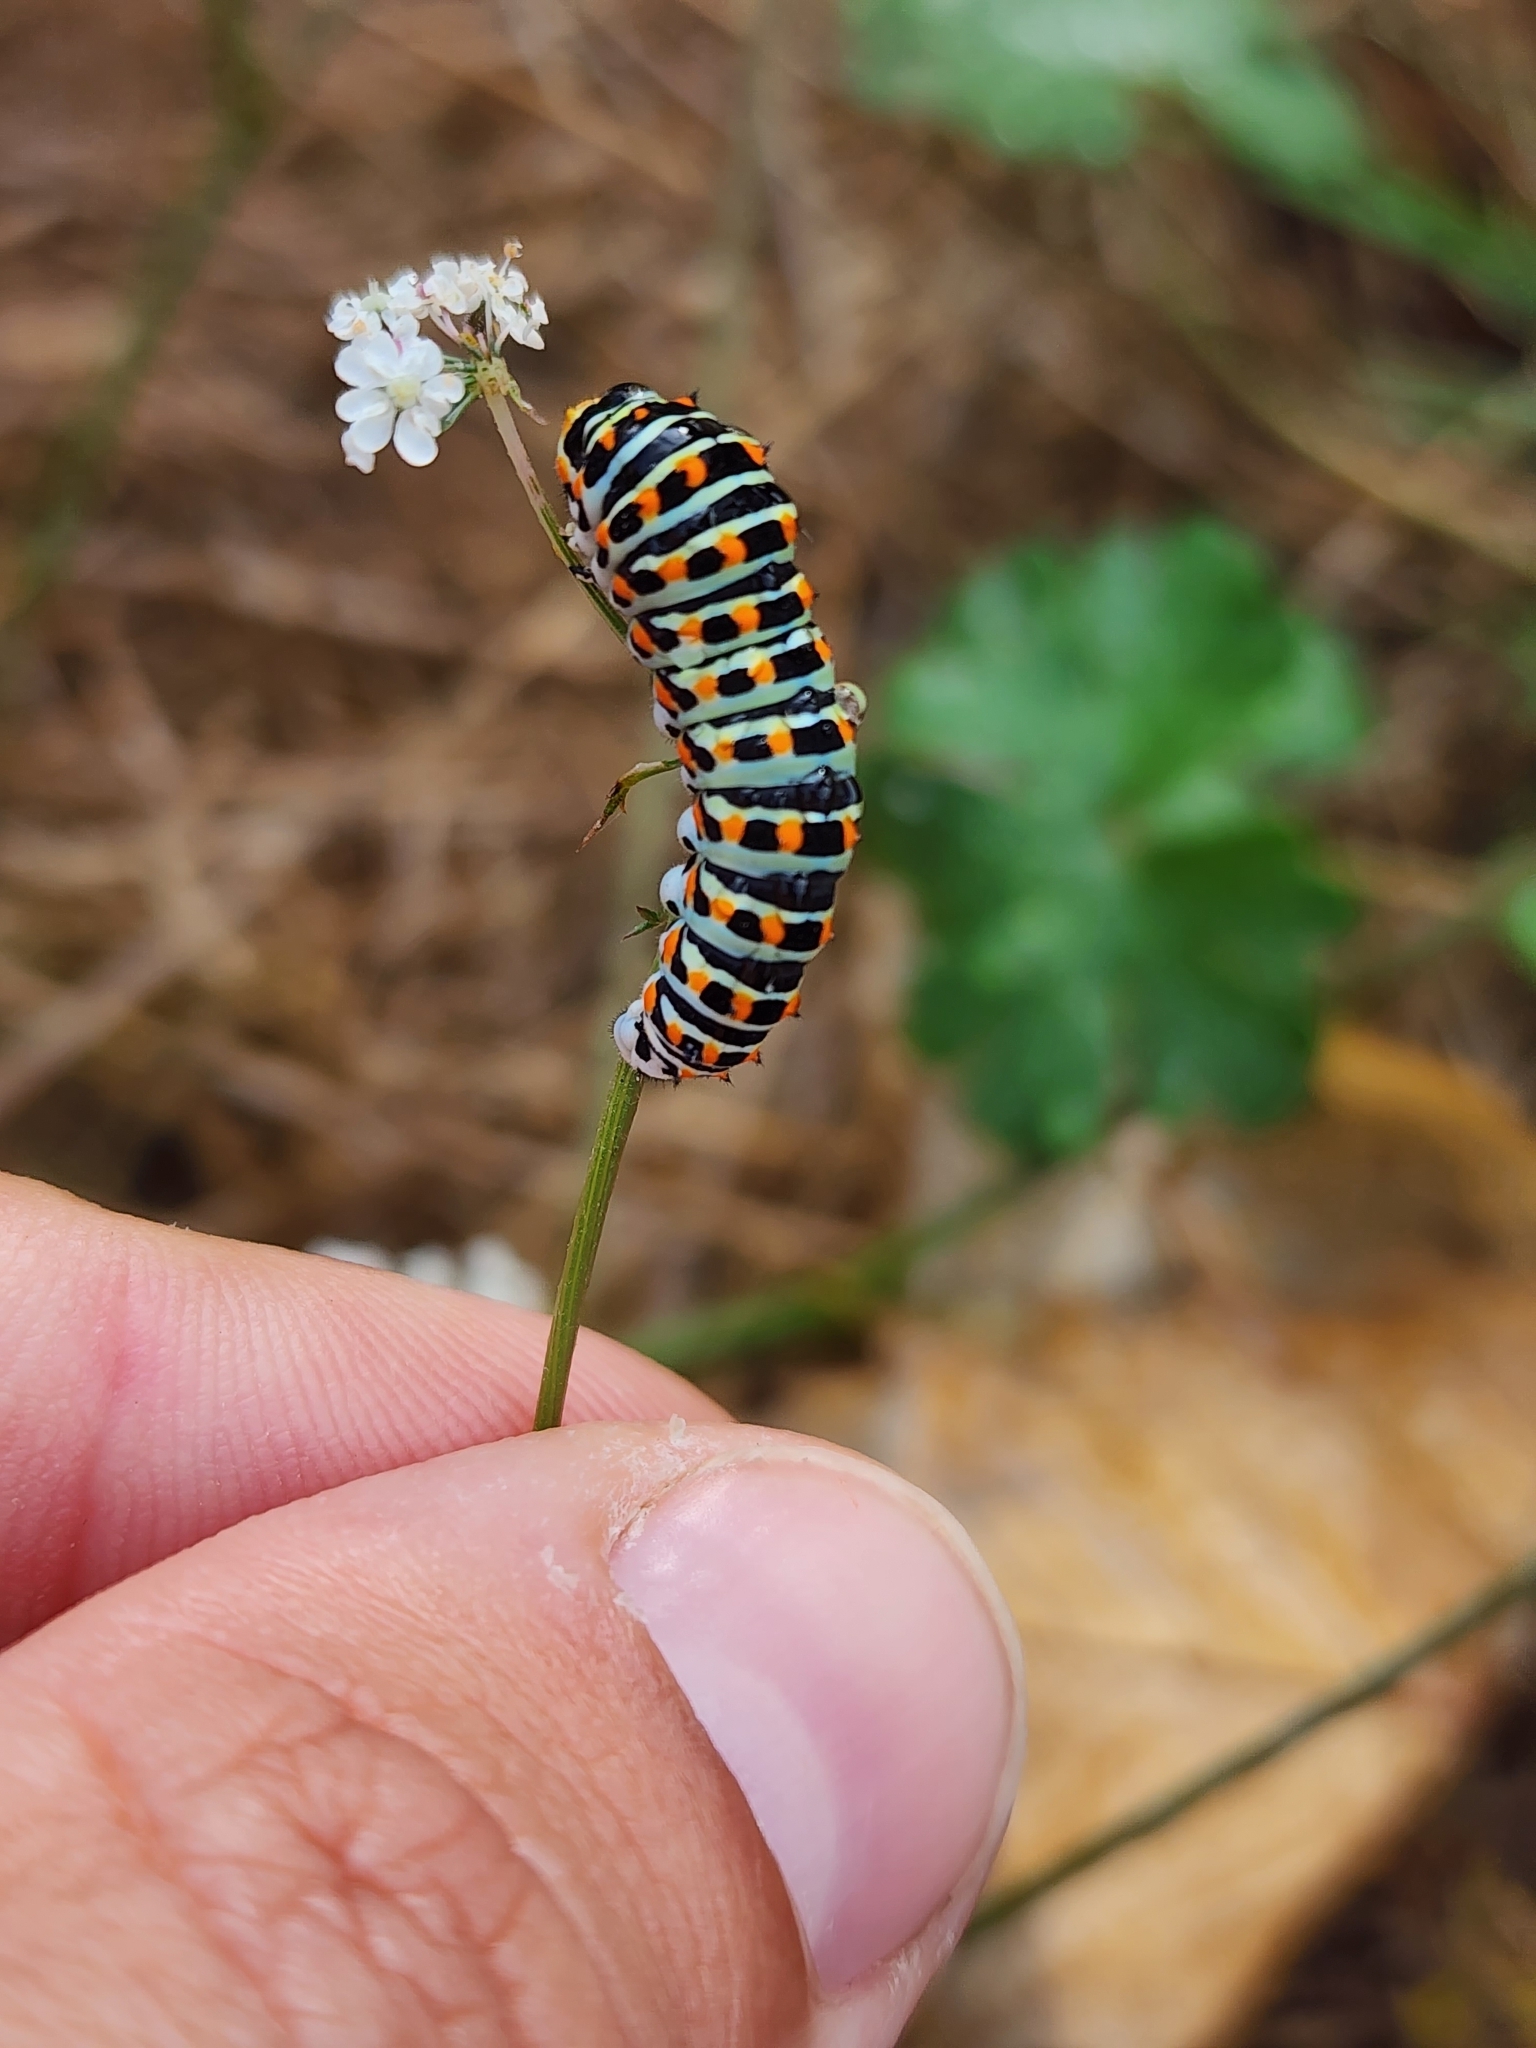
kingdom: Animalia
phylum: Arthropoda
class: Insecta
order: Lepidoptera
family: Papilionidae
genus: Papilio
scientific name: Papilio machaon
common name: Swallowtail
